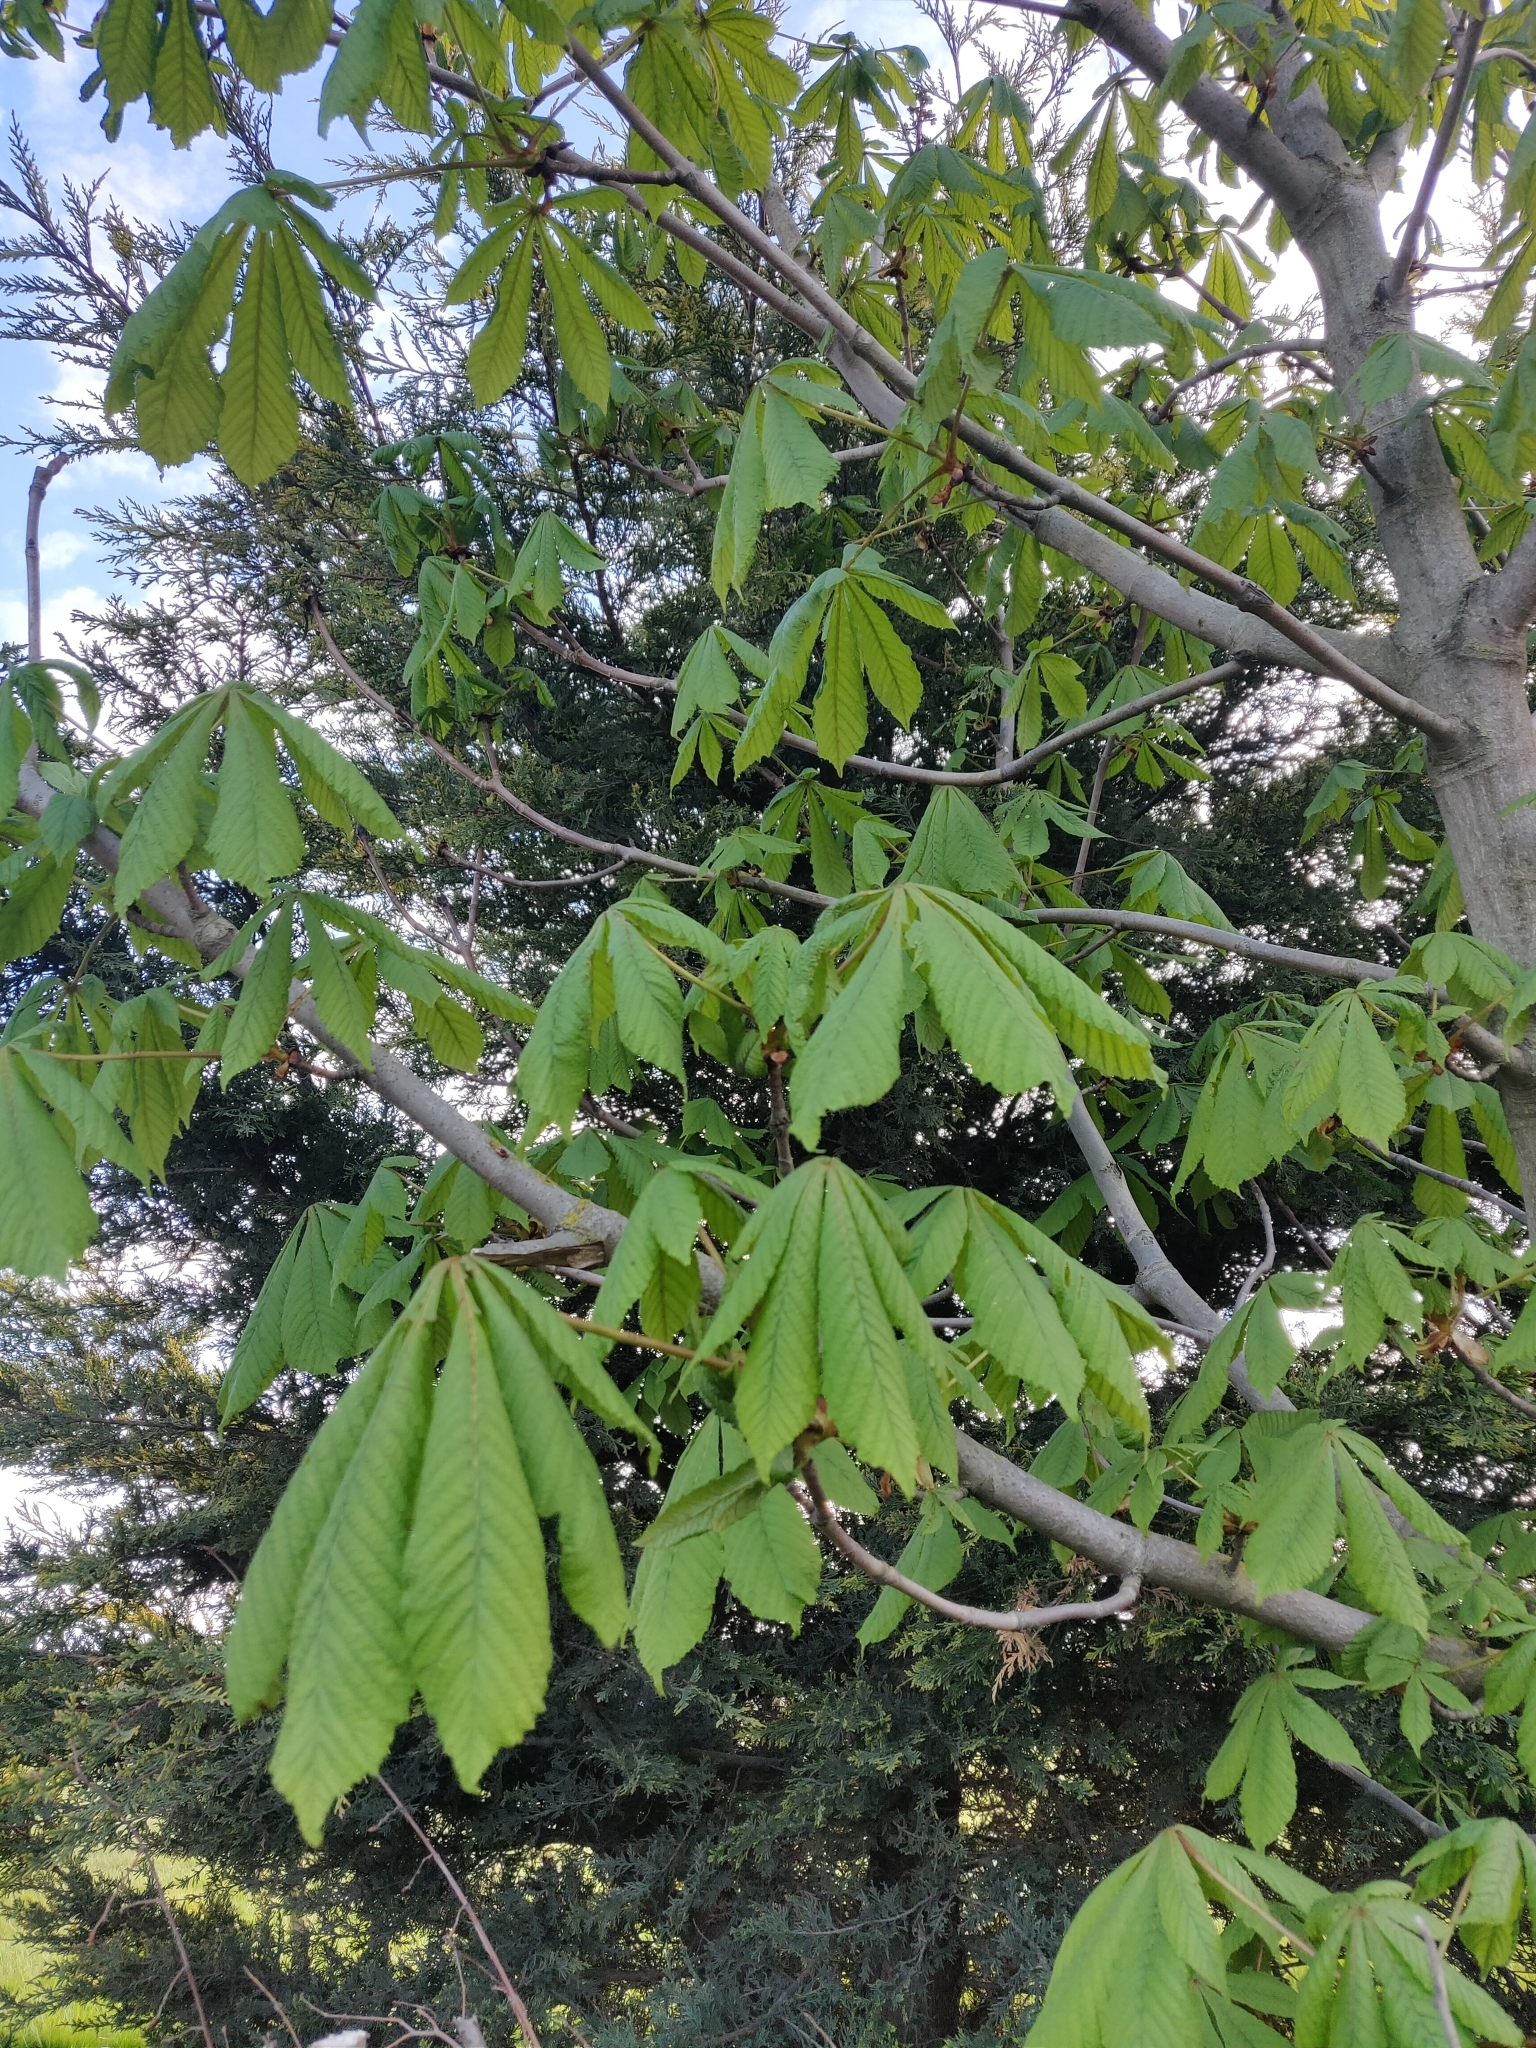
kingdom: Plantae
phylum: Tracheophyta
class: Magnoliopsida
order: Sapindales
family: Sapindaceae
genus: Aesculus
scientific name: Aesculus hippocastanum
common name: Horse-chestnut
